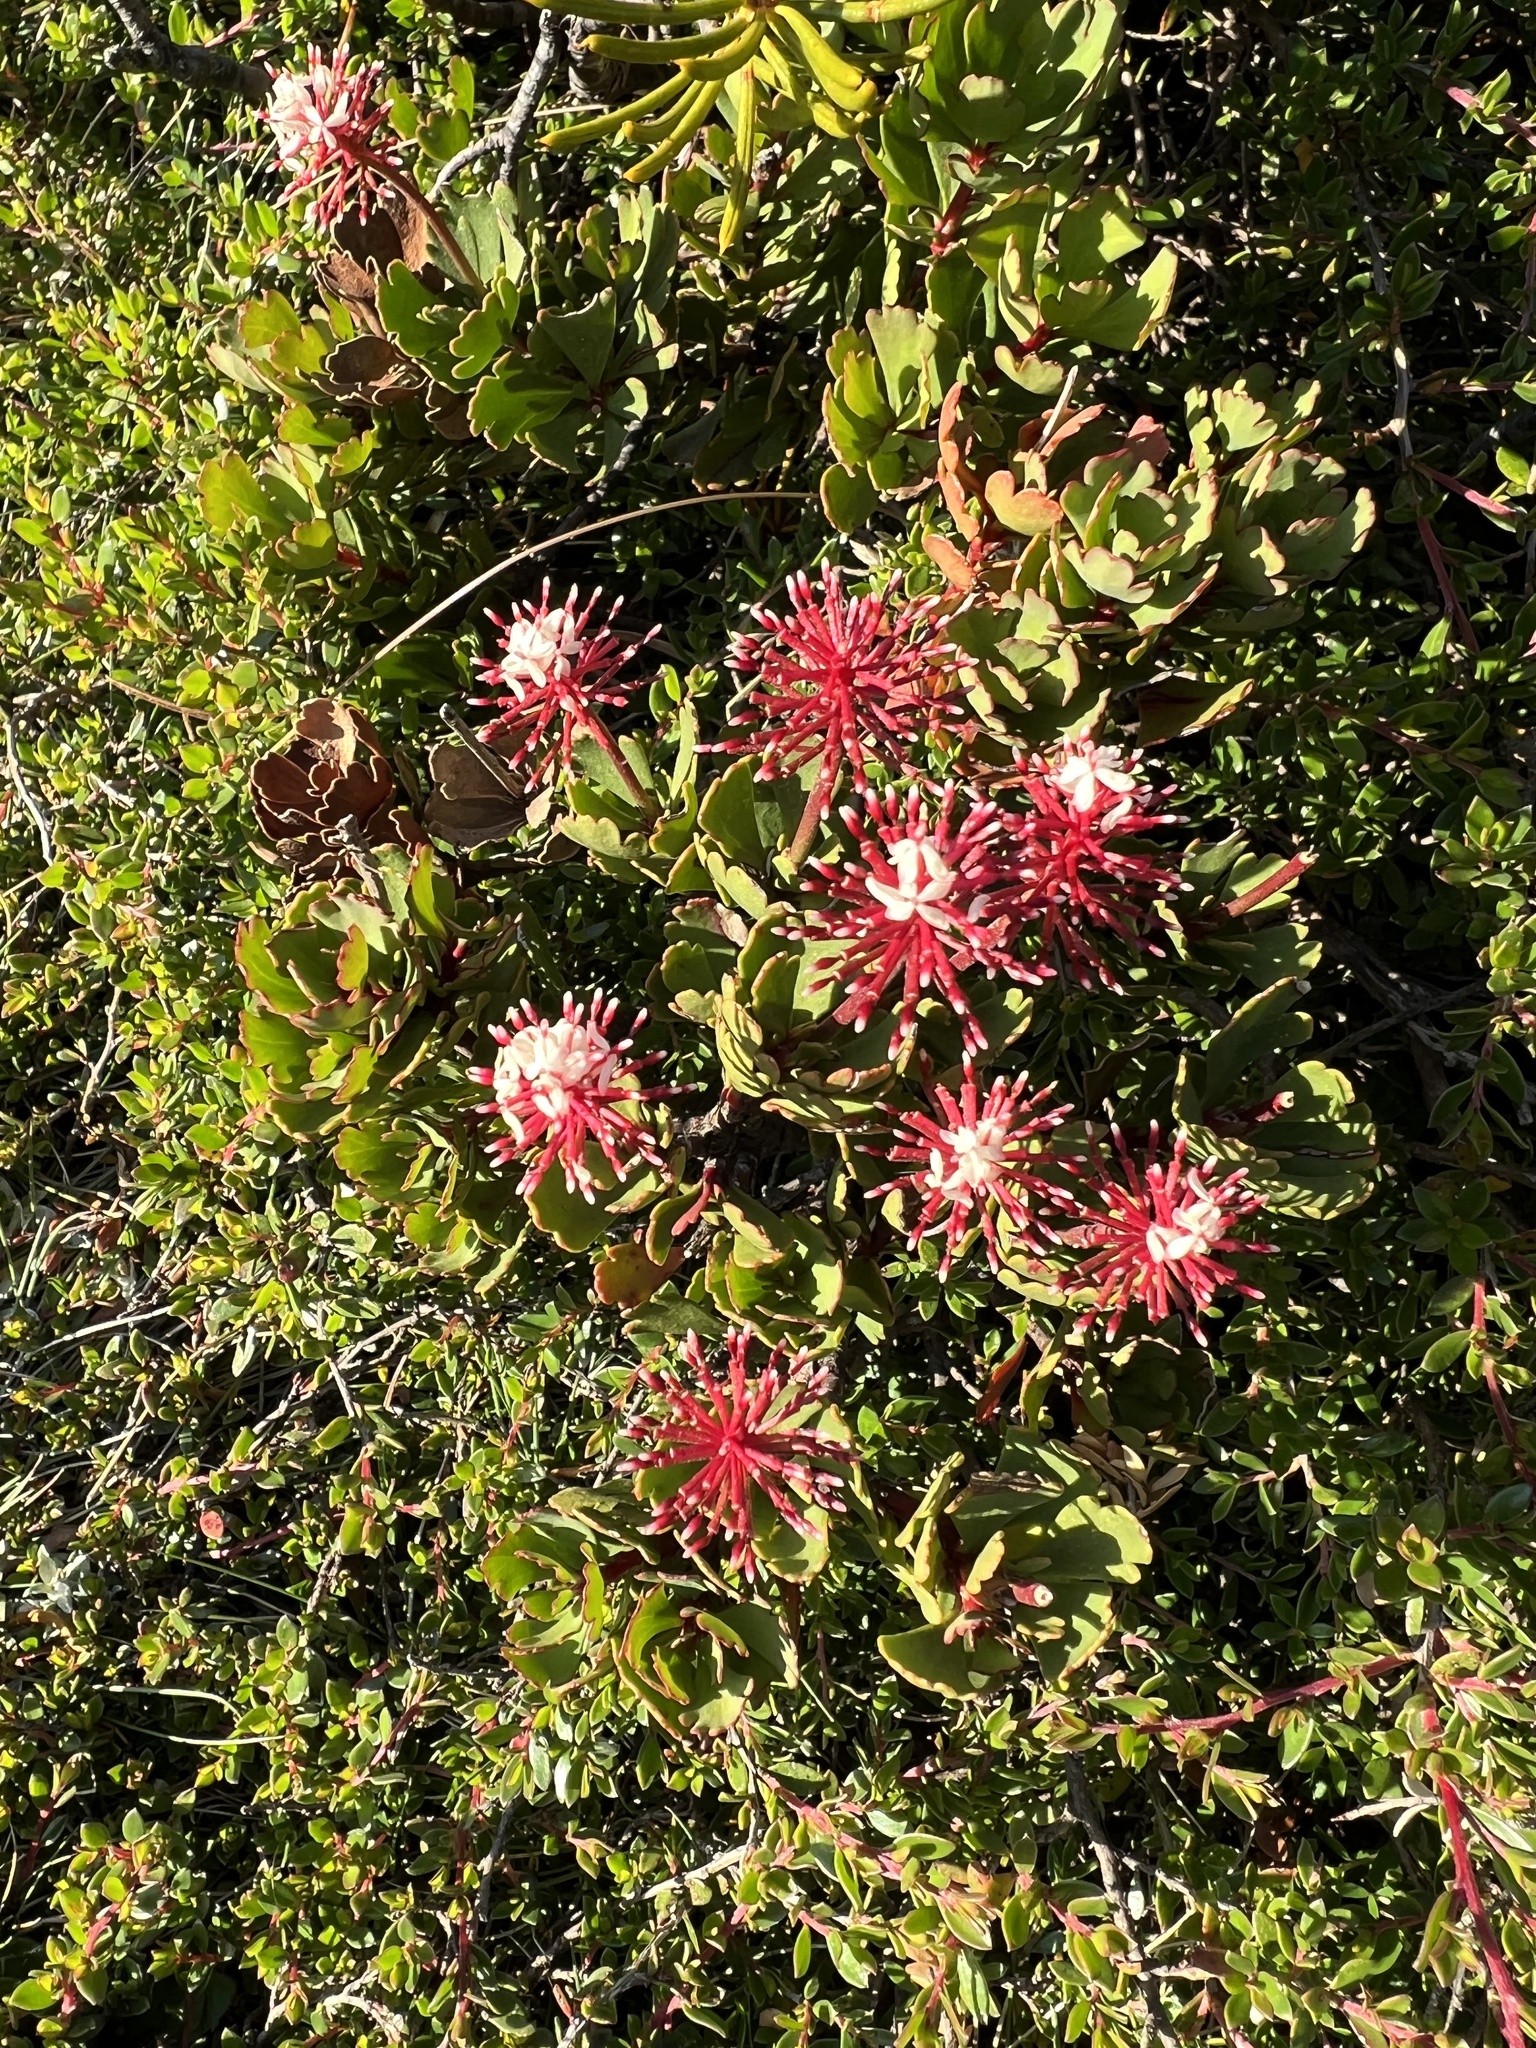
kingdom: Plantae
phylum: Tracheophyta
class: Magnoliopsida
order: Proteales
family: Proteaceae
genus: Bellendena
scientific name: Bellendena montana
